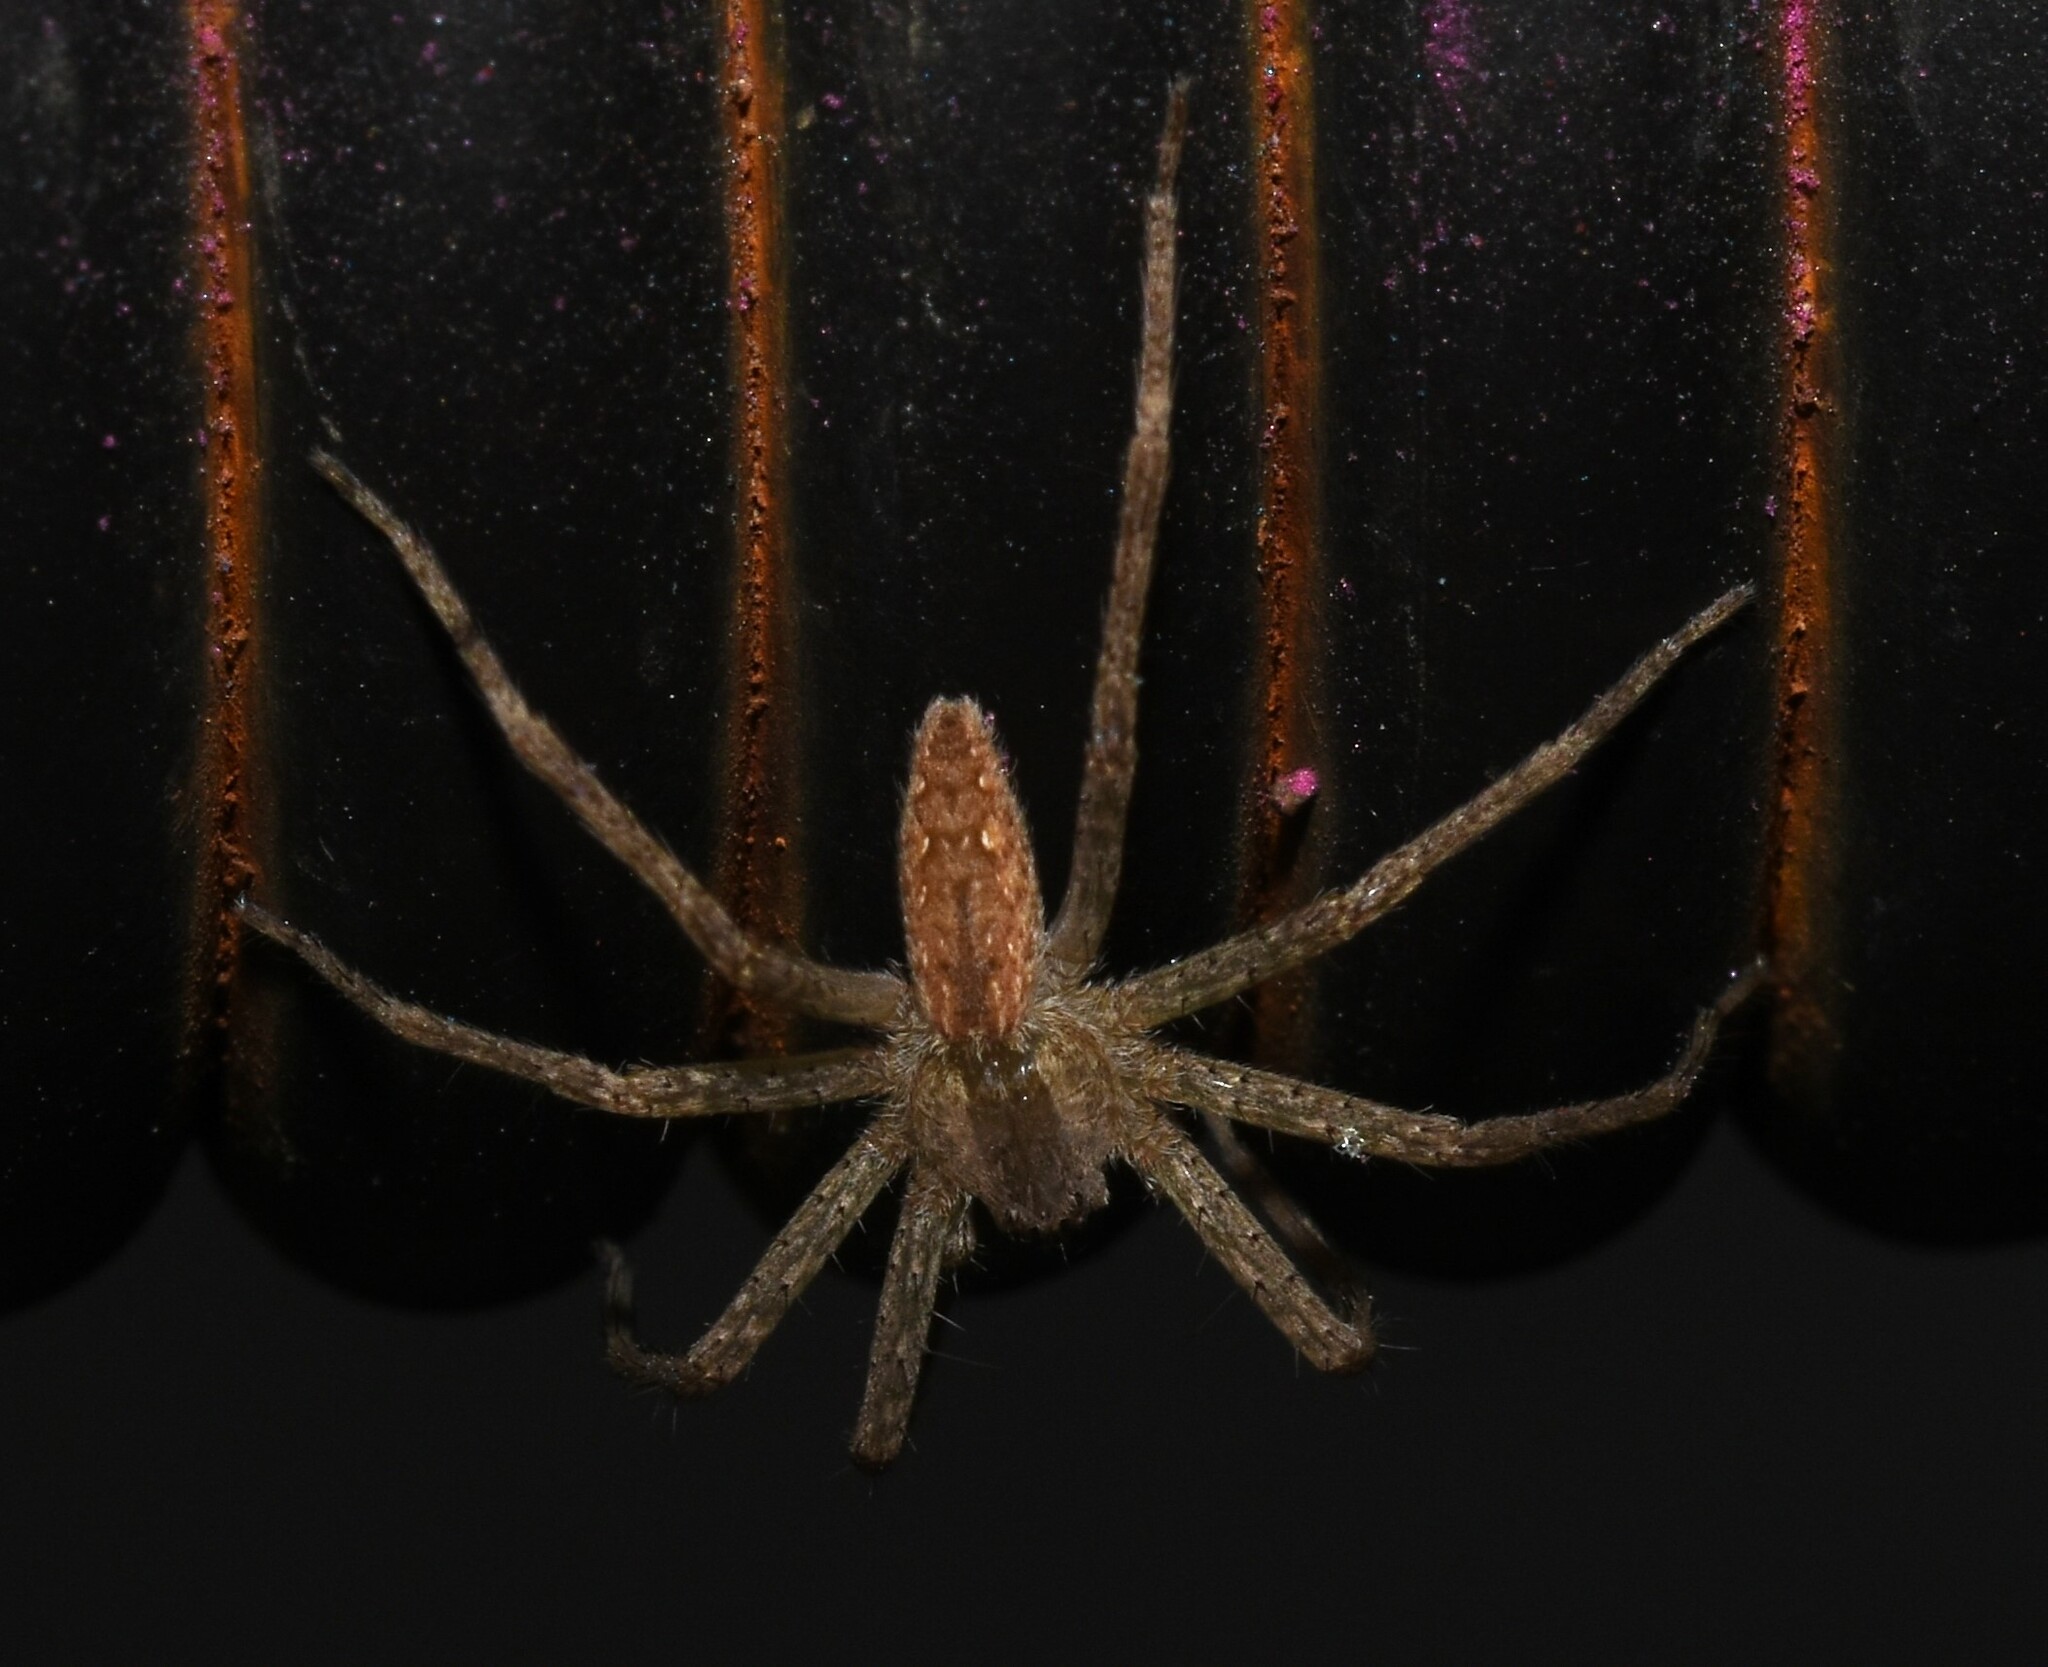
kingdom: Animalia
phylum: Arthropoda
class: Arachnida
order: Araneae
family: Pisauridae
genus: Pisaurina
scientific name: Pisaurina mira
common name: American nursery web spider
